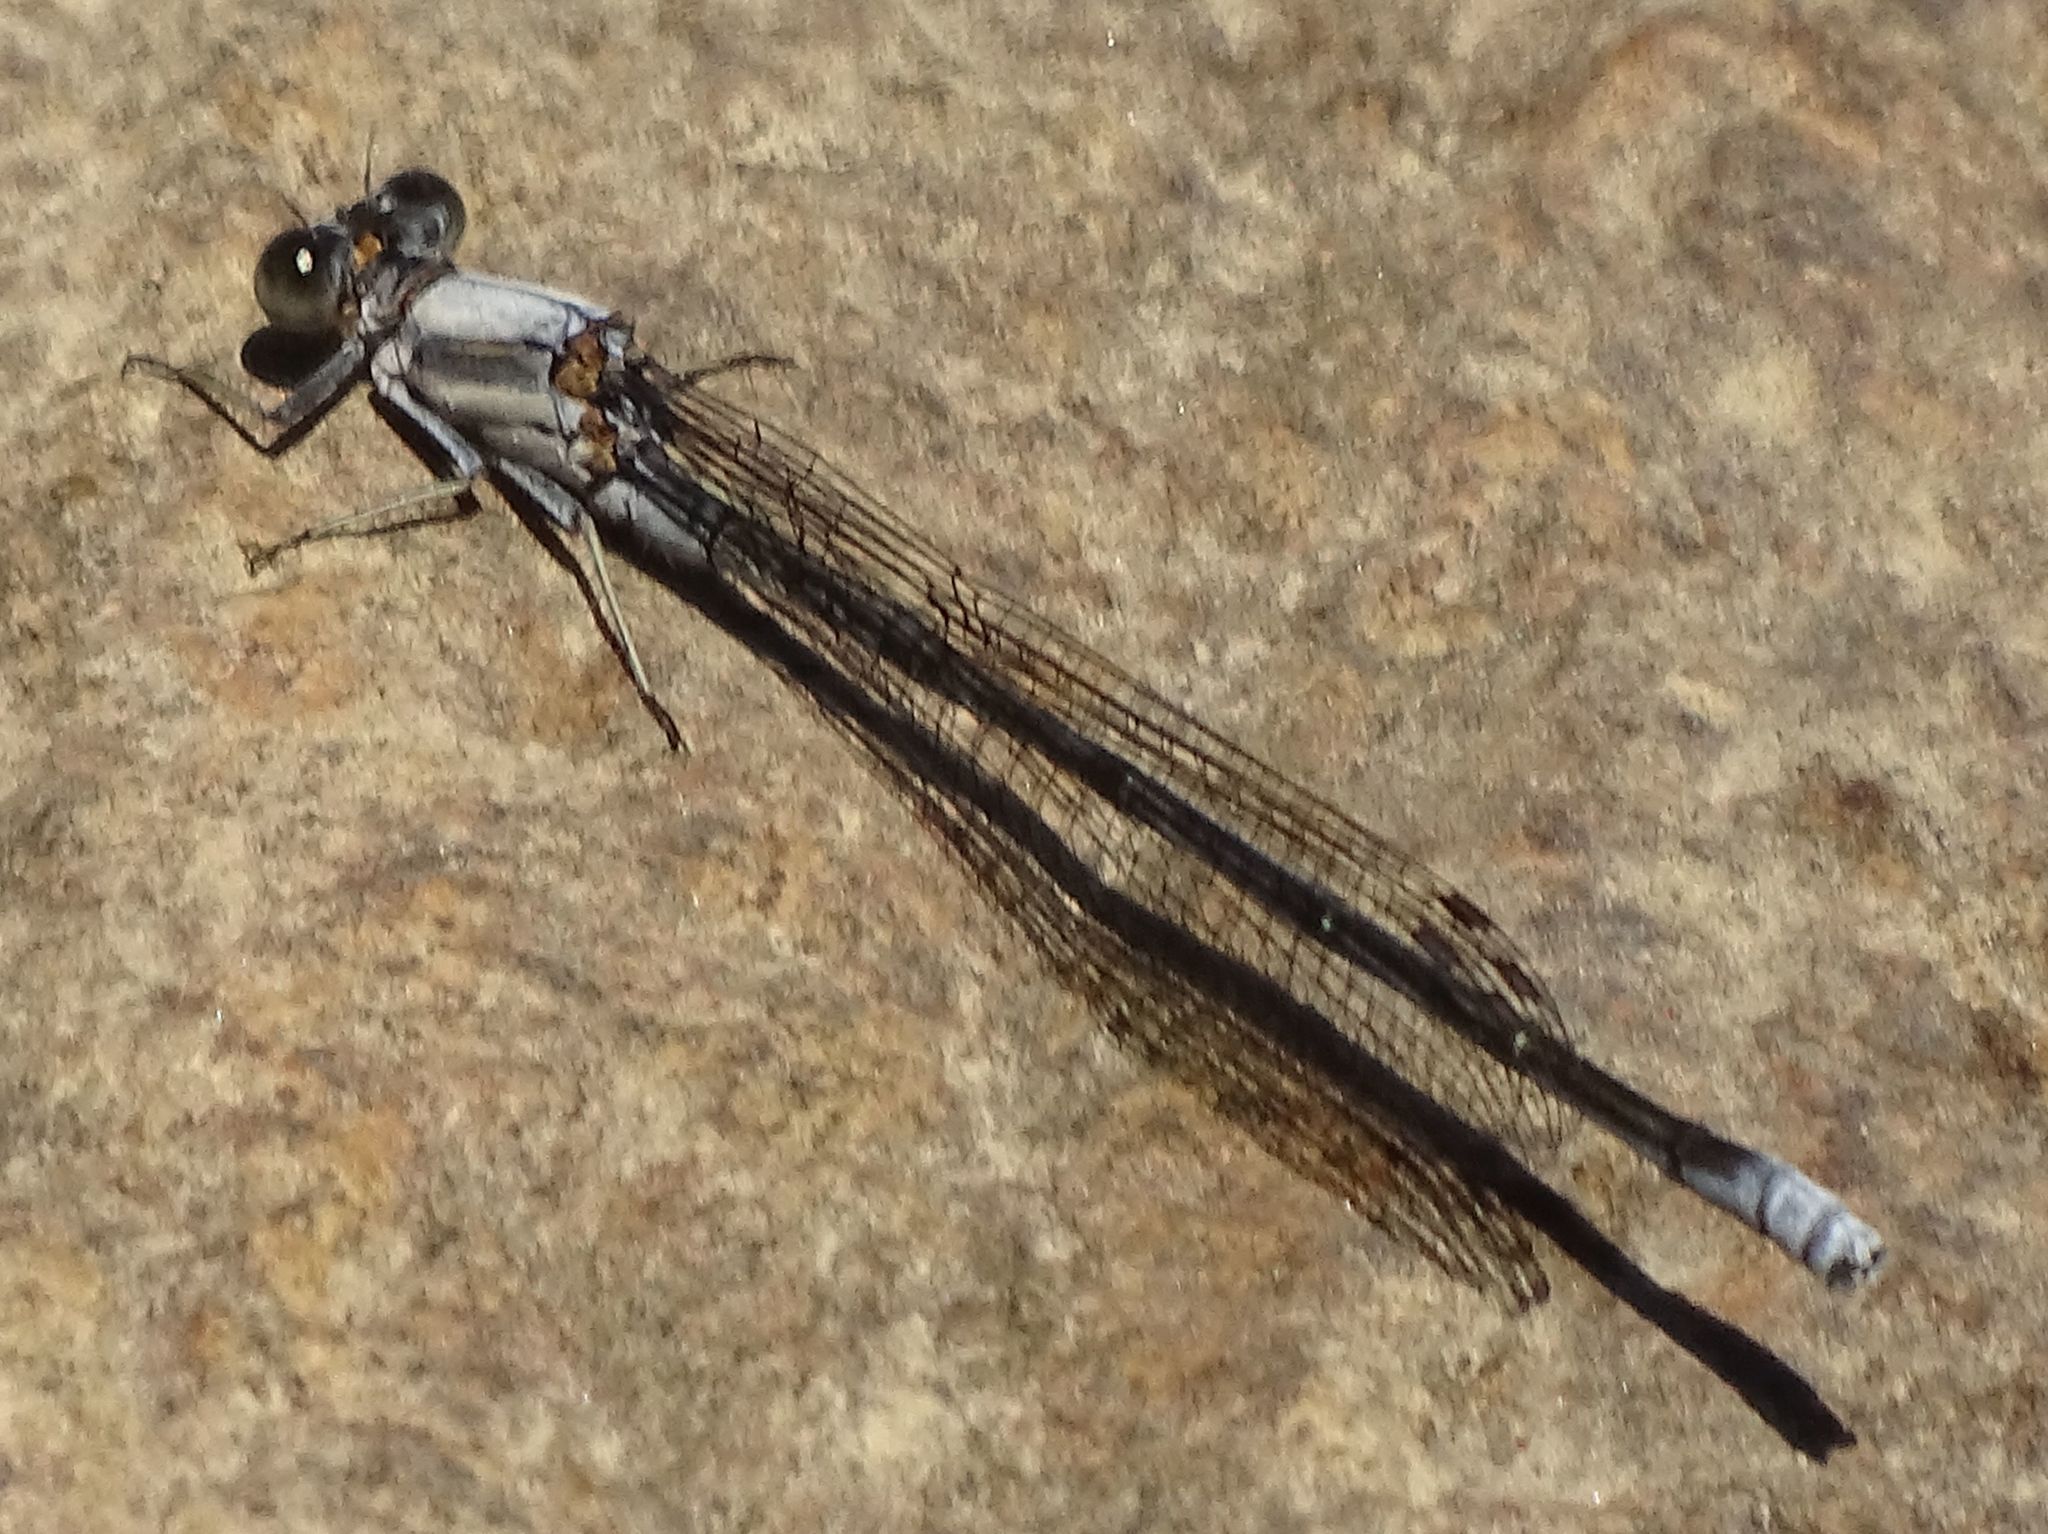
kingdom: Animalia
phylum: Arthropoda
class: Insecta
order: Odonata
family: Coenagrionidae
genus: Argia
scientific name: Argia moesta
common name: Powdered dancer
